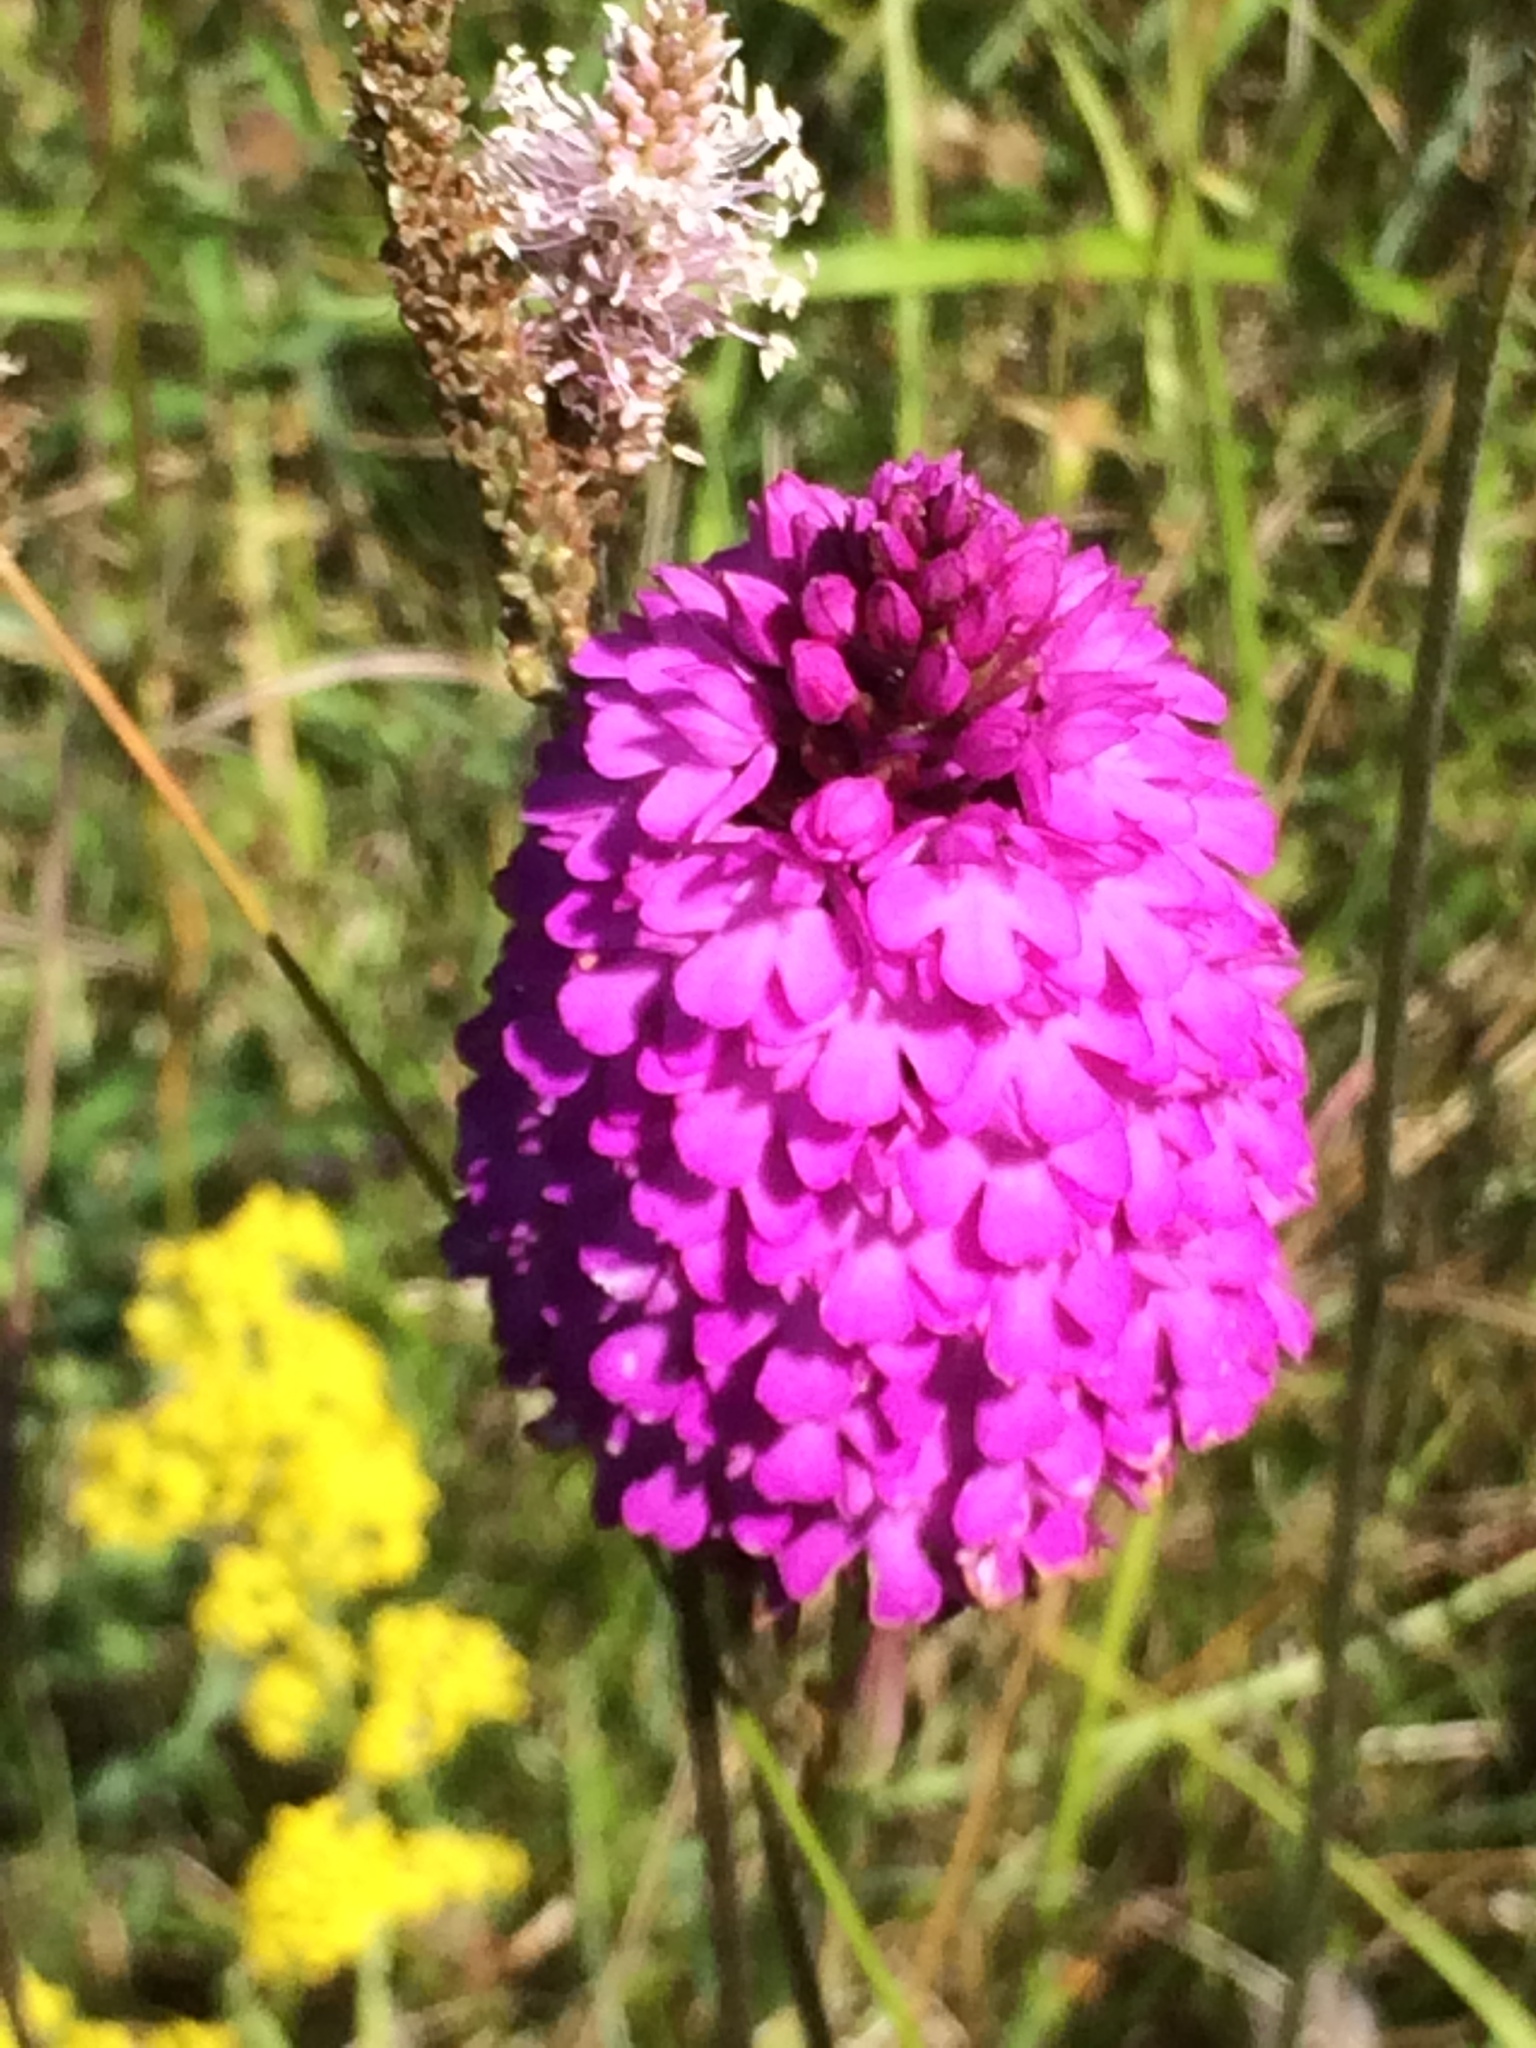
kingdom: Plantae
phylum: Tracheophyta
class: Liliopsida
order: Asparagales
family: Orchidaceae
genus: Anacamptis
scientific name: Anacamptis pyramidalis
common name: Pyramidal orchid
